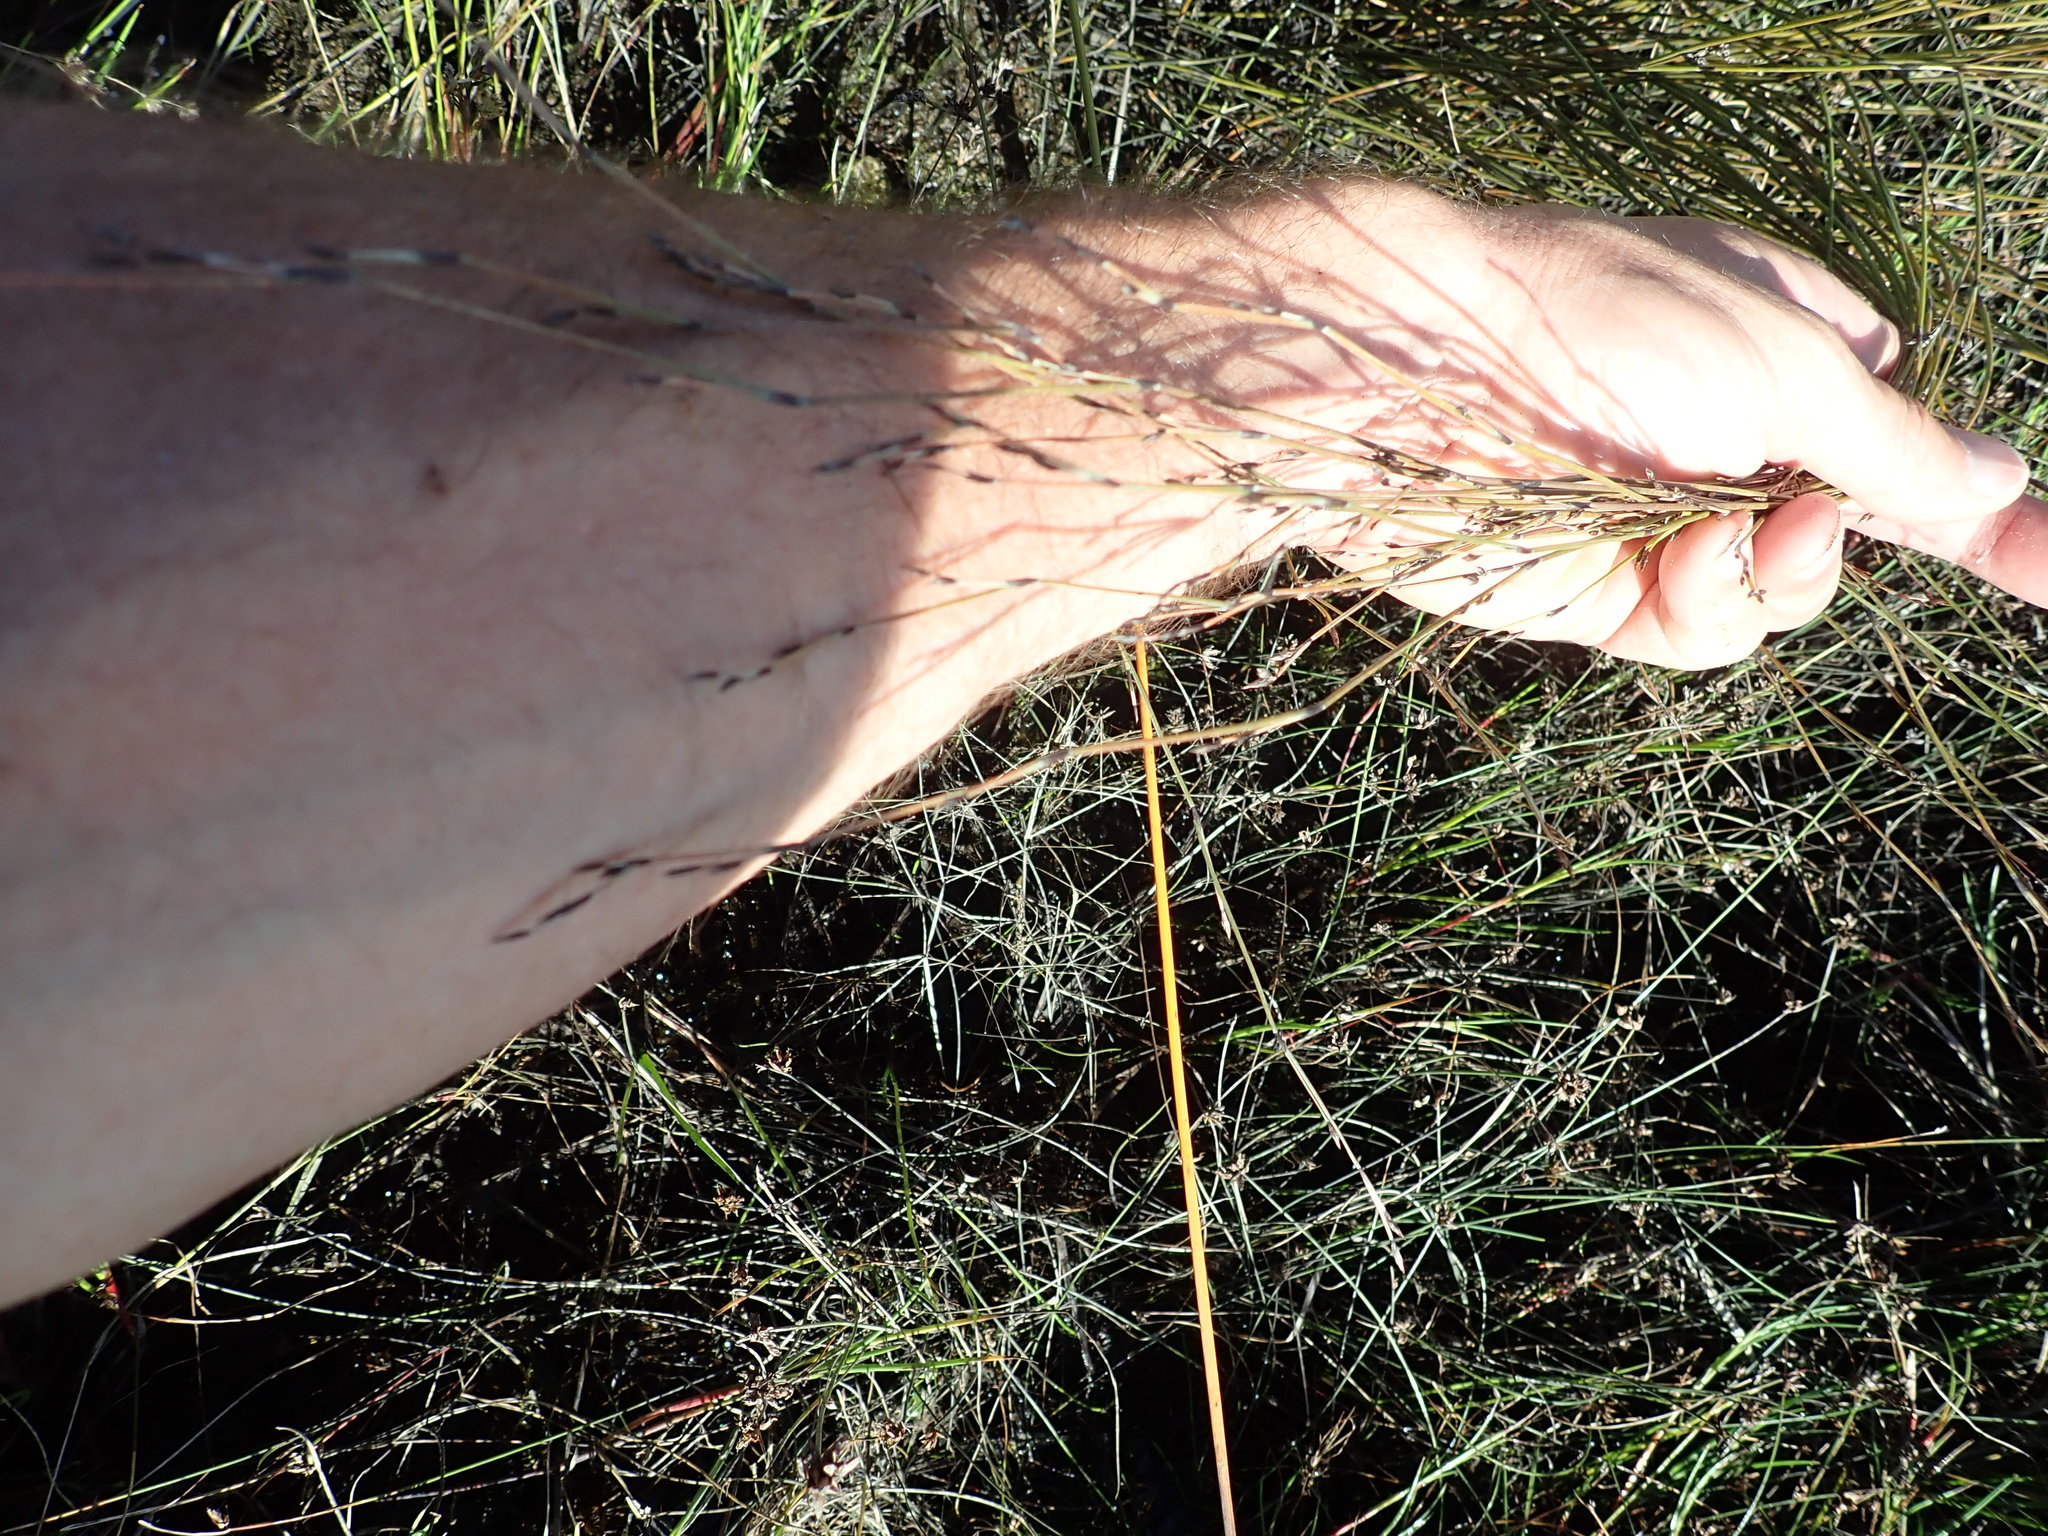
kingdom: Plantae
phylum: Tracheophyta
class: Liliopsida
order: Poales
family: Restionaceae
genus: Apodasmia
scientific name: Apodasmia similis
